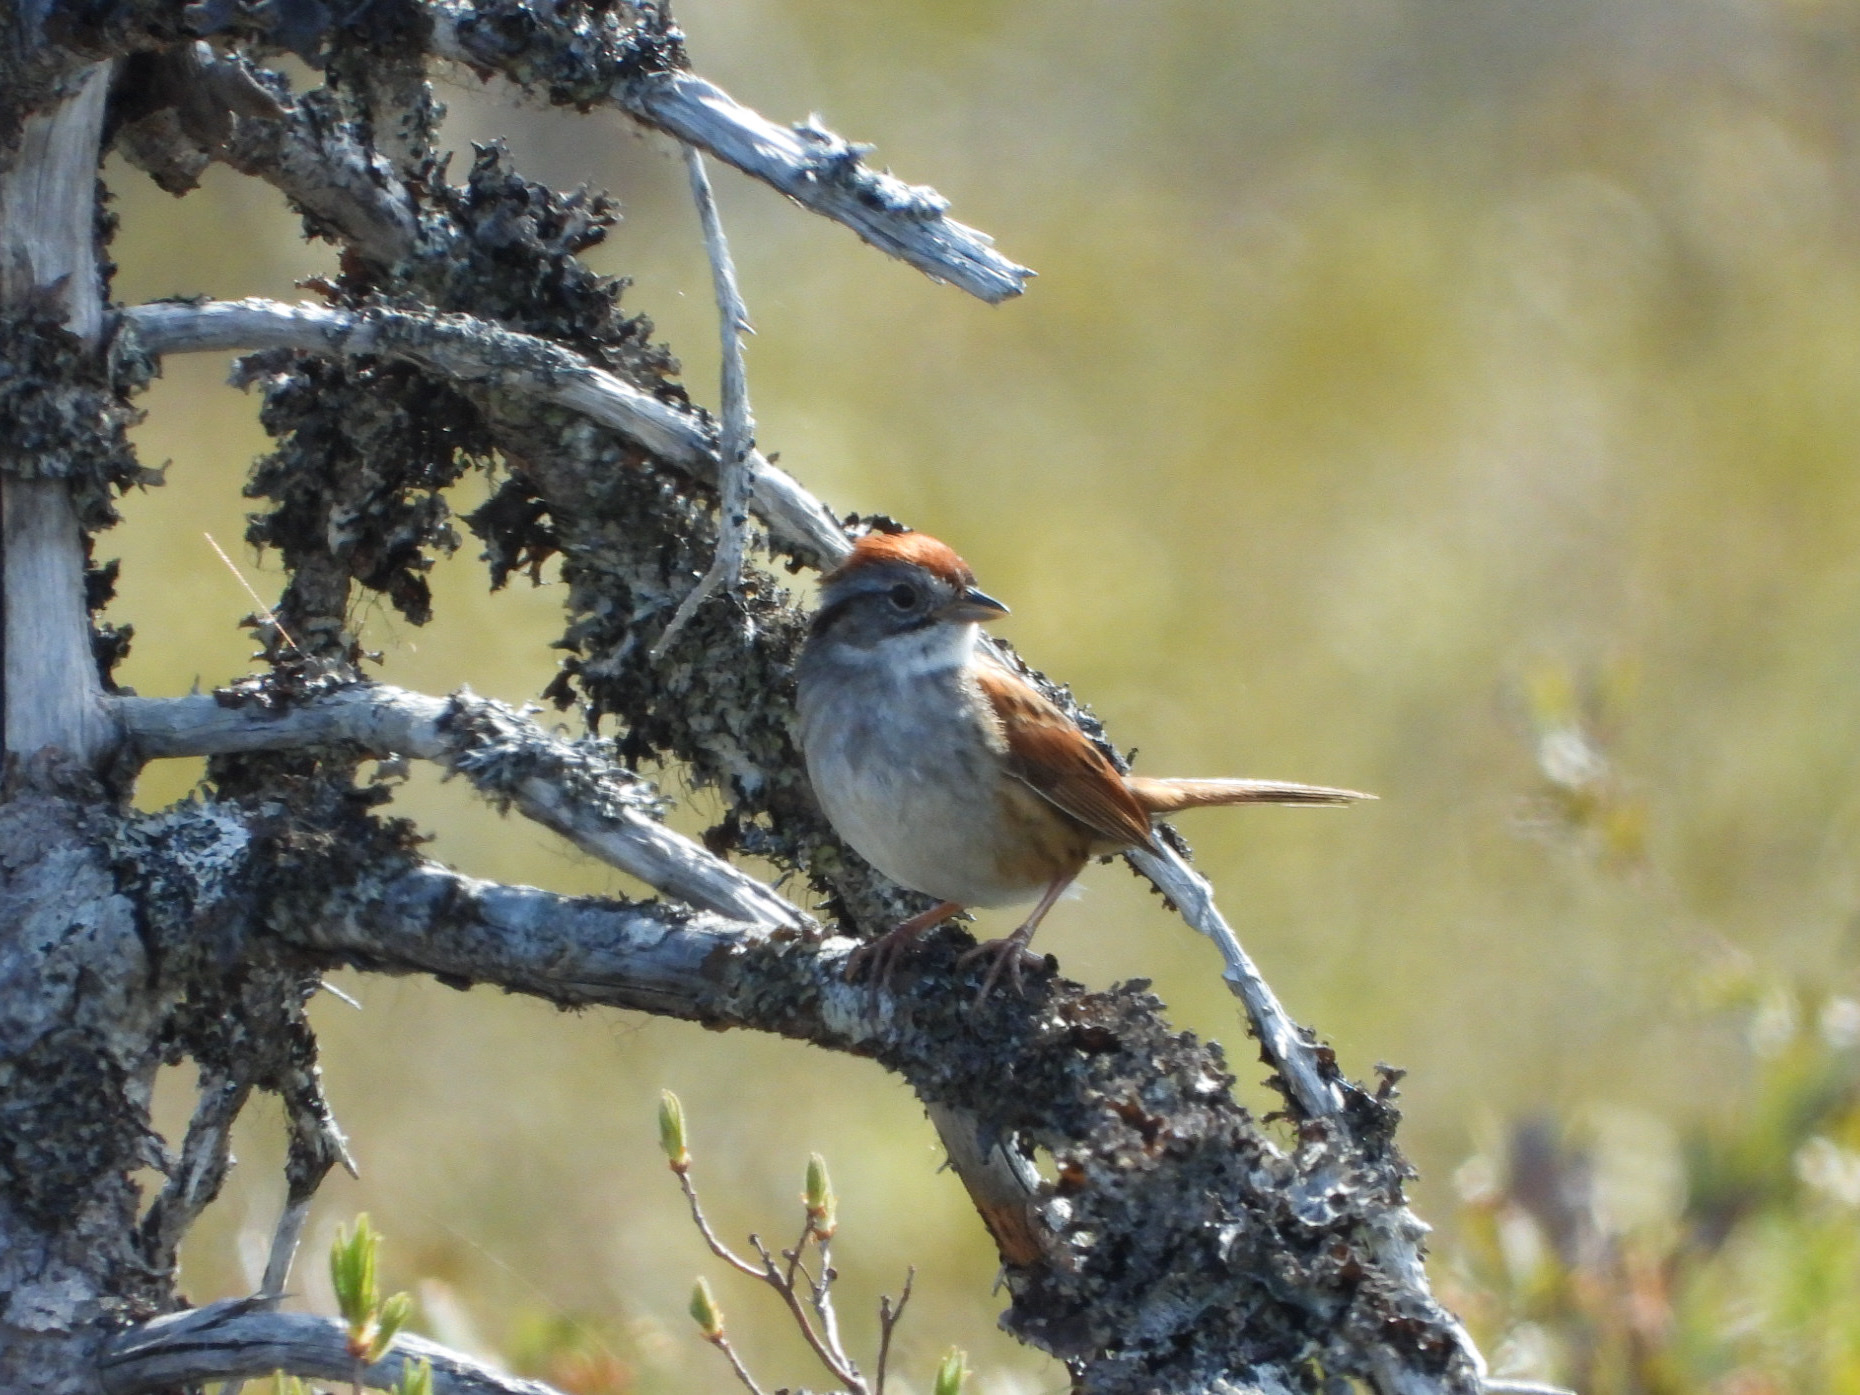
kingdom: Animalia
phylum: Chordata
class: Aves
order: Passeriformes
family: Passerellidae
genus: Melospiza
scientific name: Melospiza georgiana
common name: Swamp sparrow
